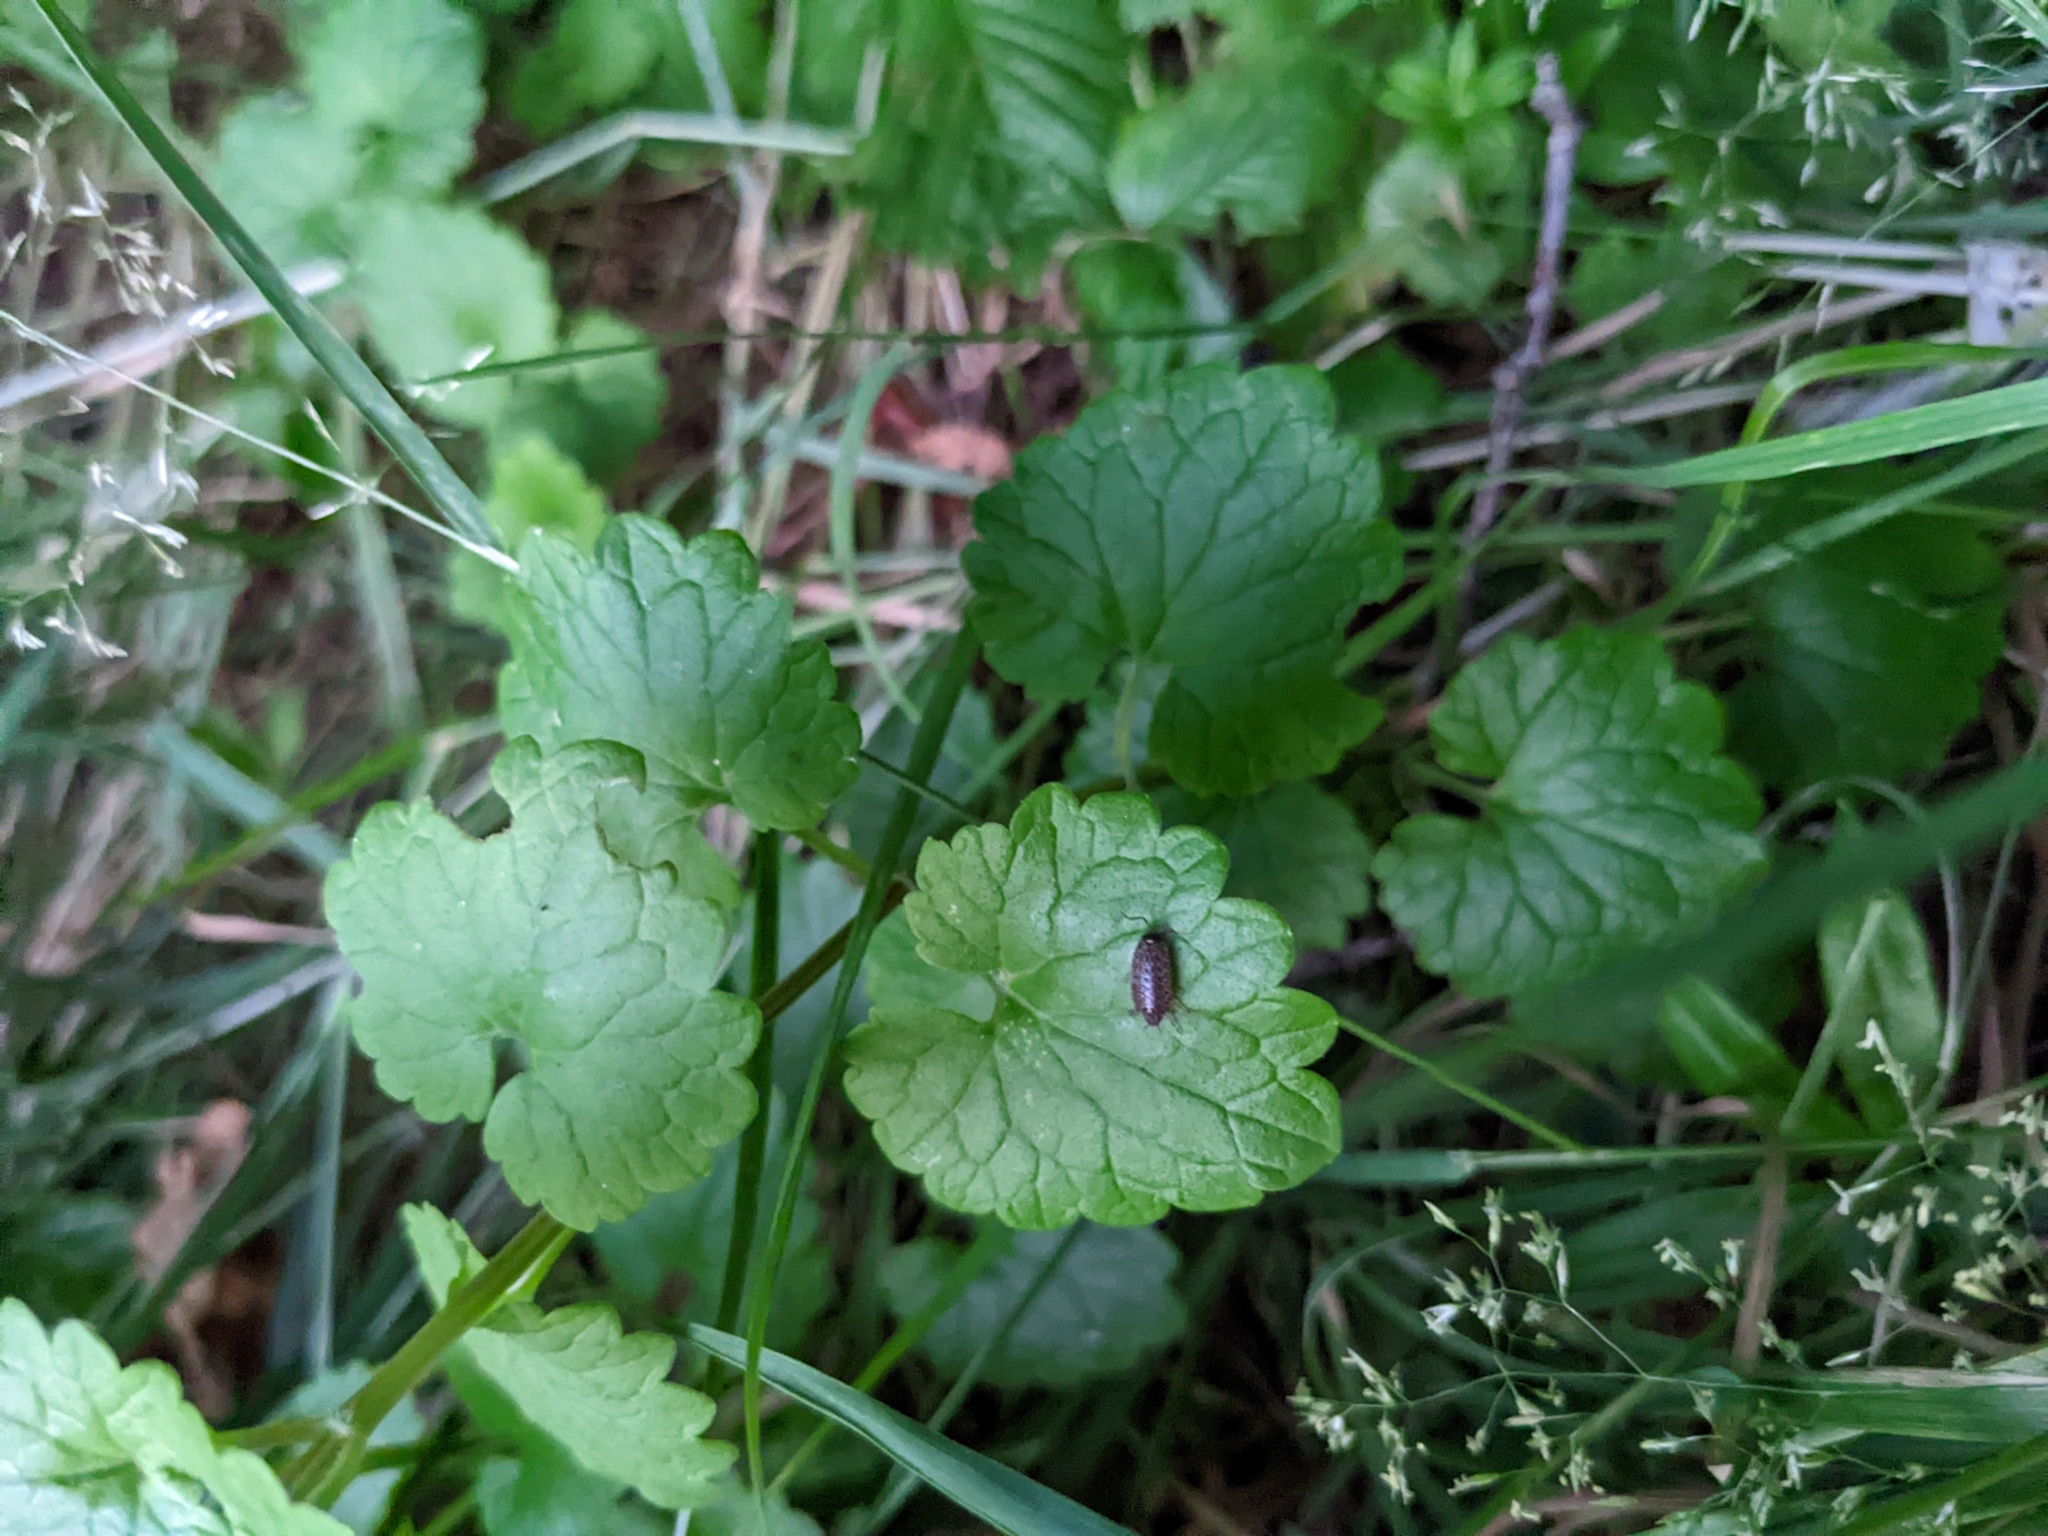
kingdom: Animalia
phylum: Arthropoda
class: Malacostraca
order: Isopoda
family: Philosciidae
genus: Philoscia
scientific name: Philoscia muscorum
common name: Common striped woodlouse
